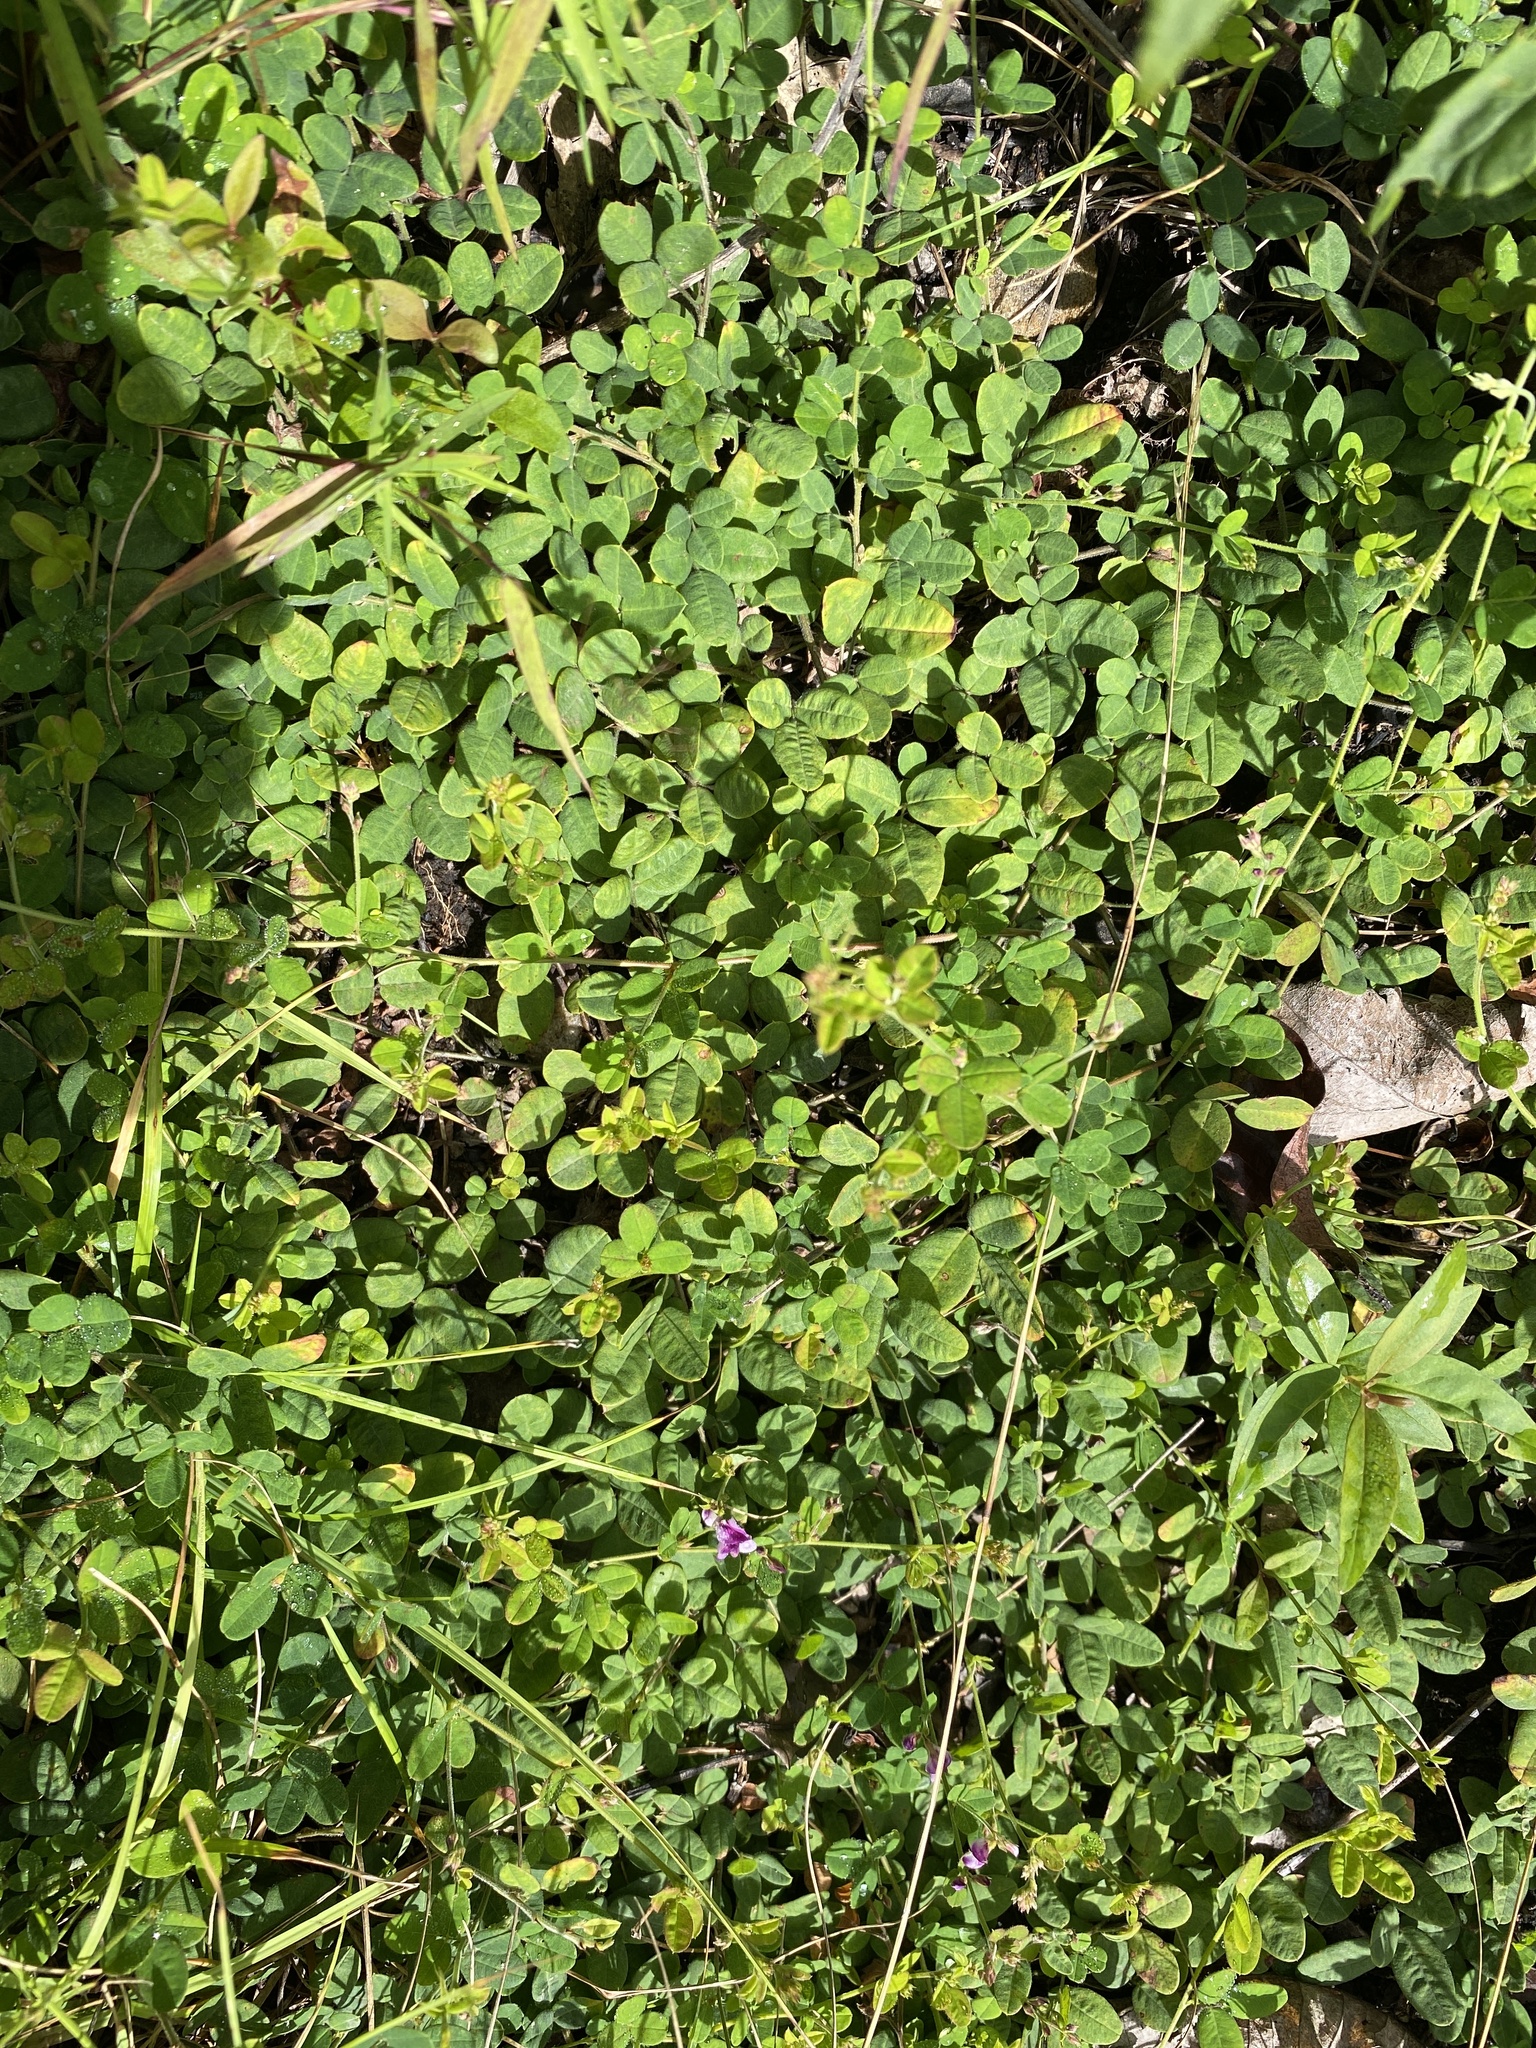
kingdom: Plantae
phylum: Tracheophyta
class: Magnoliopsida
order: Fabales
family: Fabaceae
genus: Lespedeza
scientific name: Lespedeza procumbens
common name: Downy trailing bush-clover
